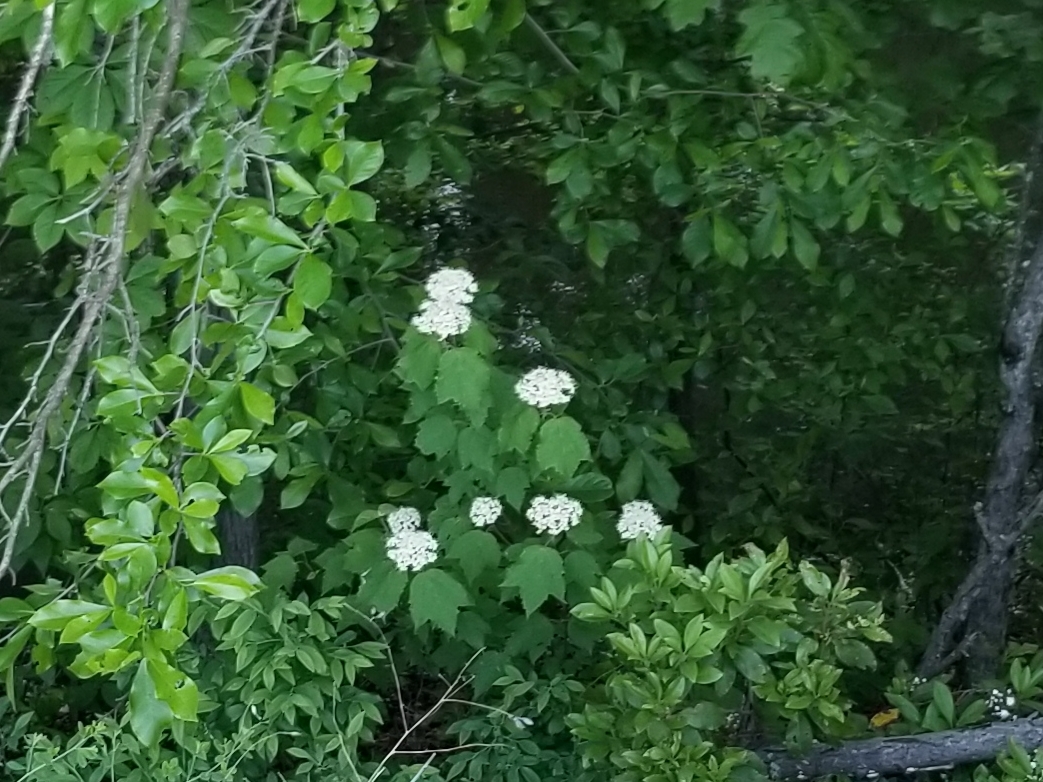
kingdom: Plantae
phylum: Tracheophyta
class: Magnoliopsida
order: Dipsacales
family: Viburnaceae
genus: Viburnum
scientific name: Viburnum acerifolium
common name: Dockmackie
